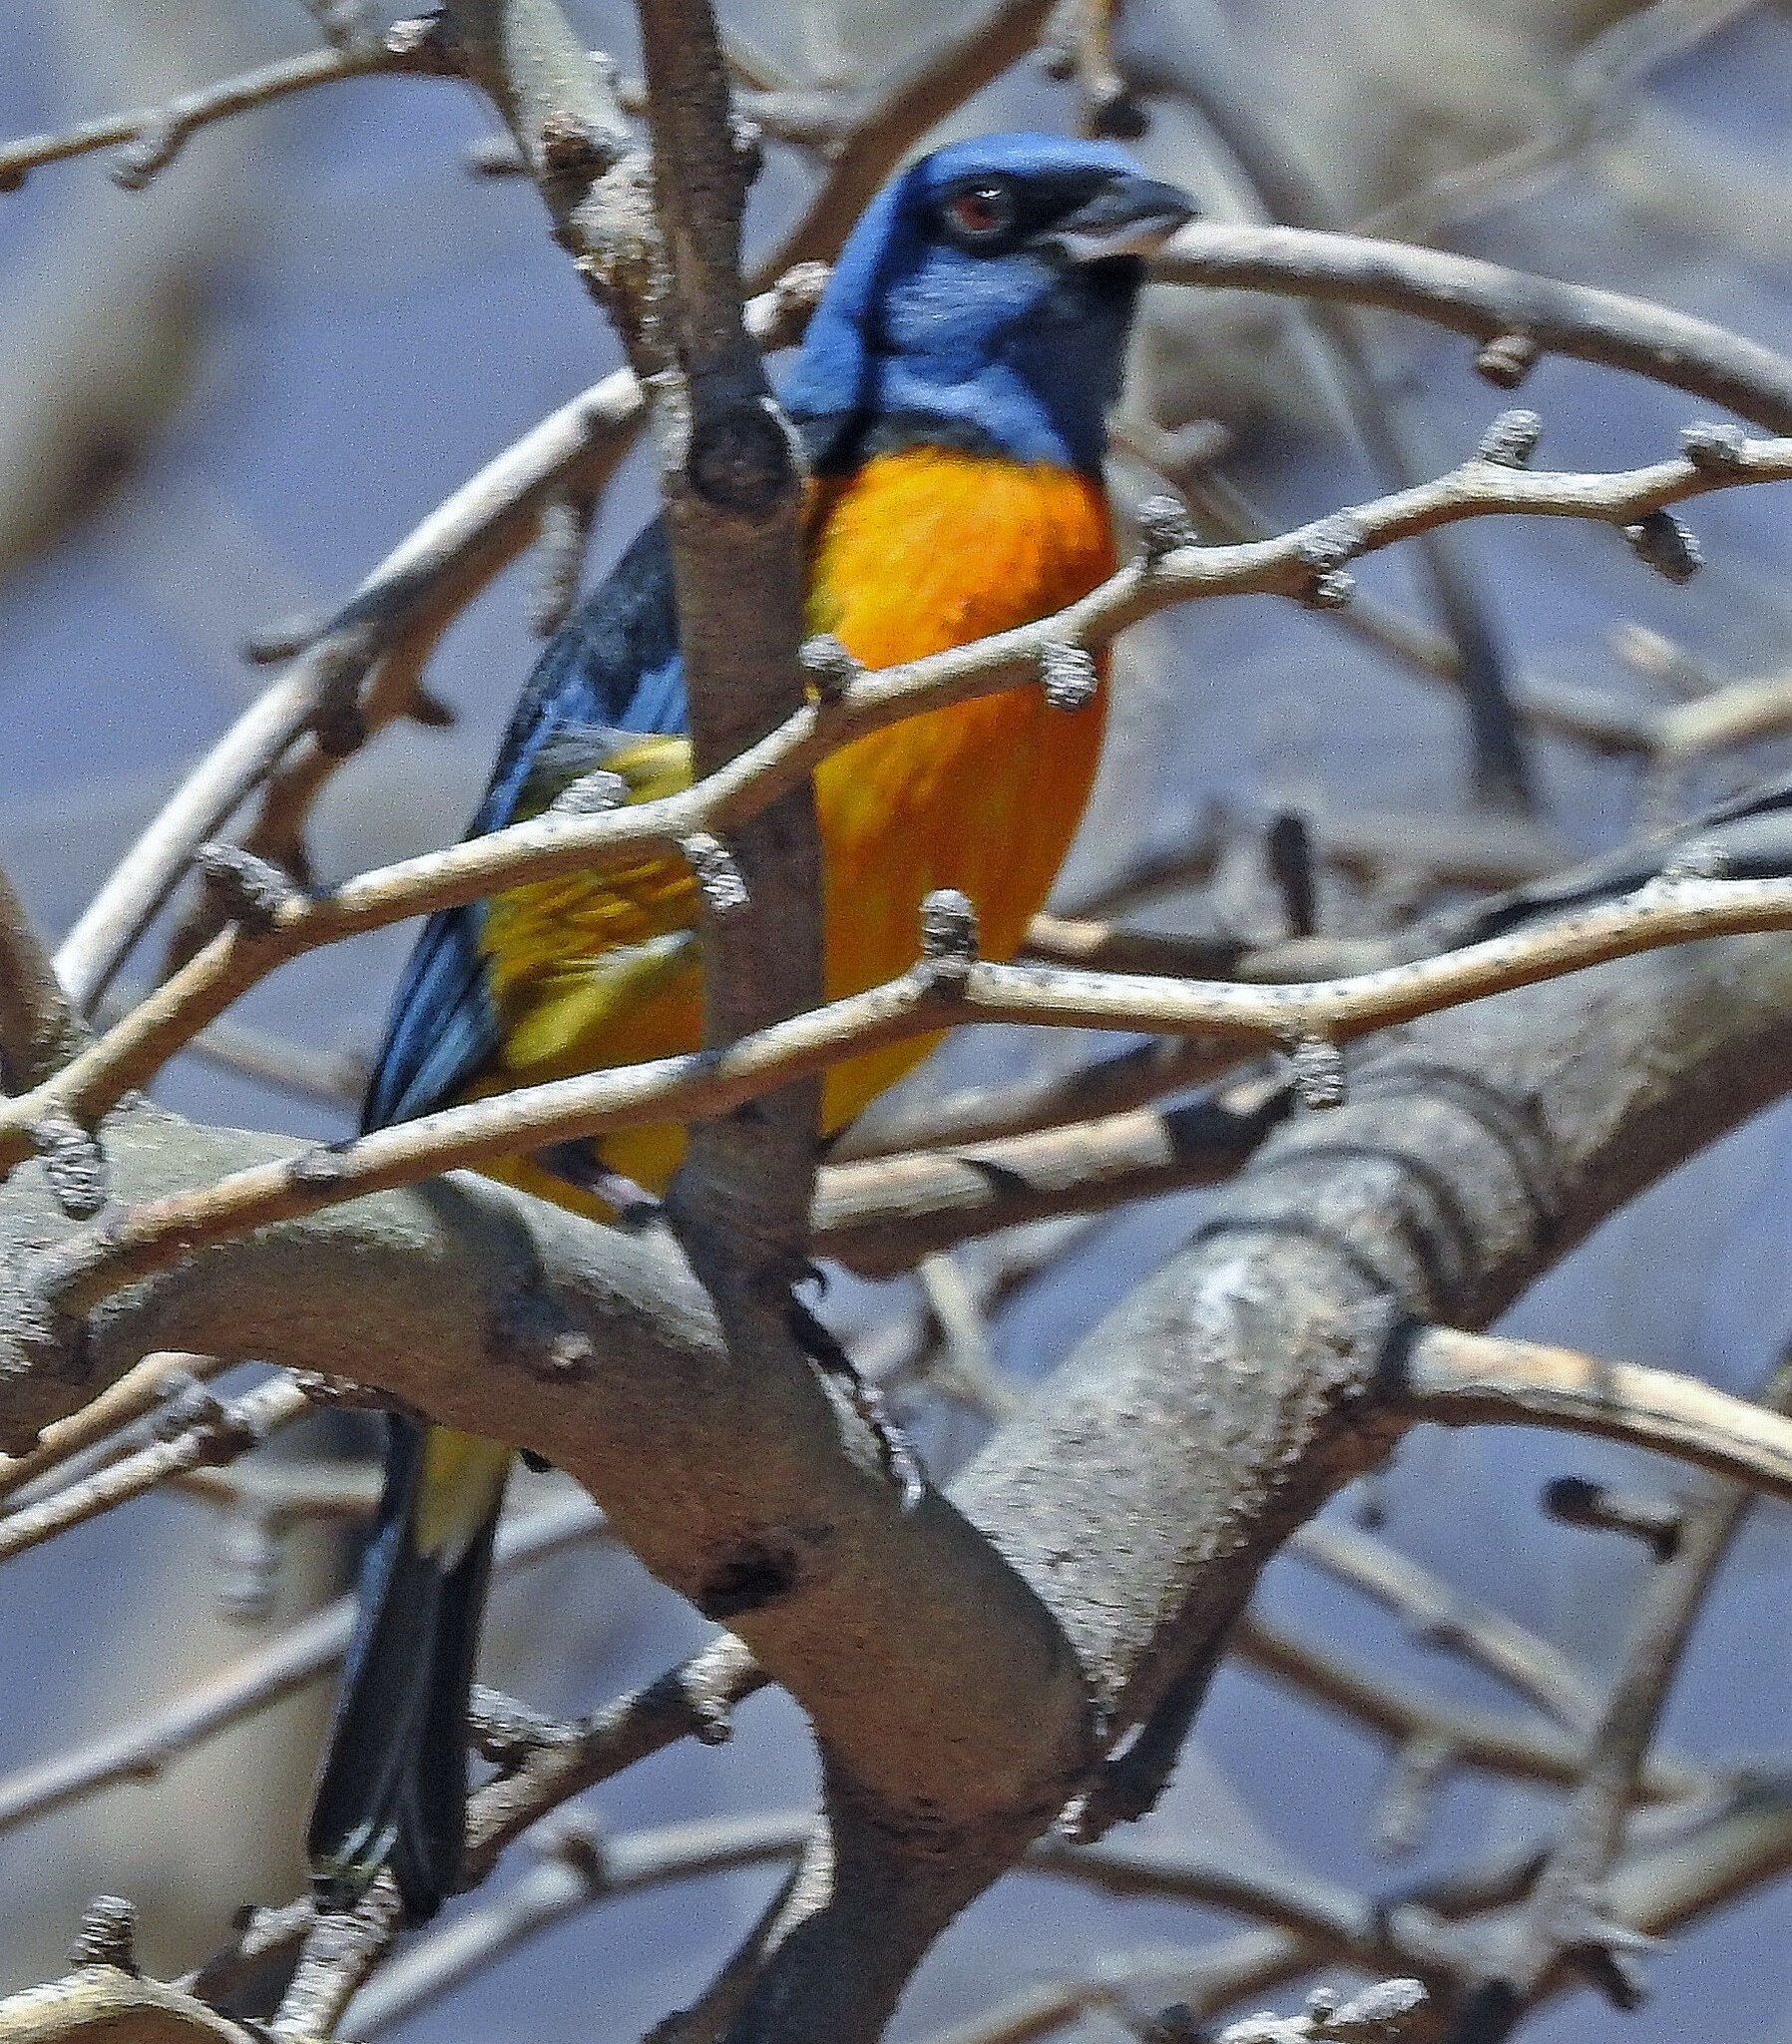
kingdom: Animalia
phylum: Chordata
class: Aves
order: Passeriformes
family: Thraupidae
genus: Rauenia
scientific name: Rauenia bonariensis
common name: Blue-and-yellow tanager
